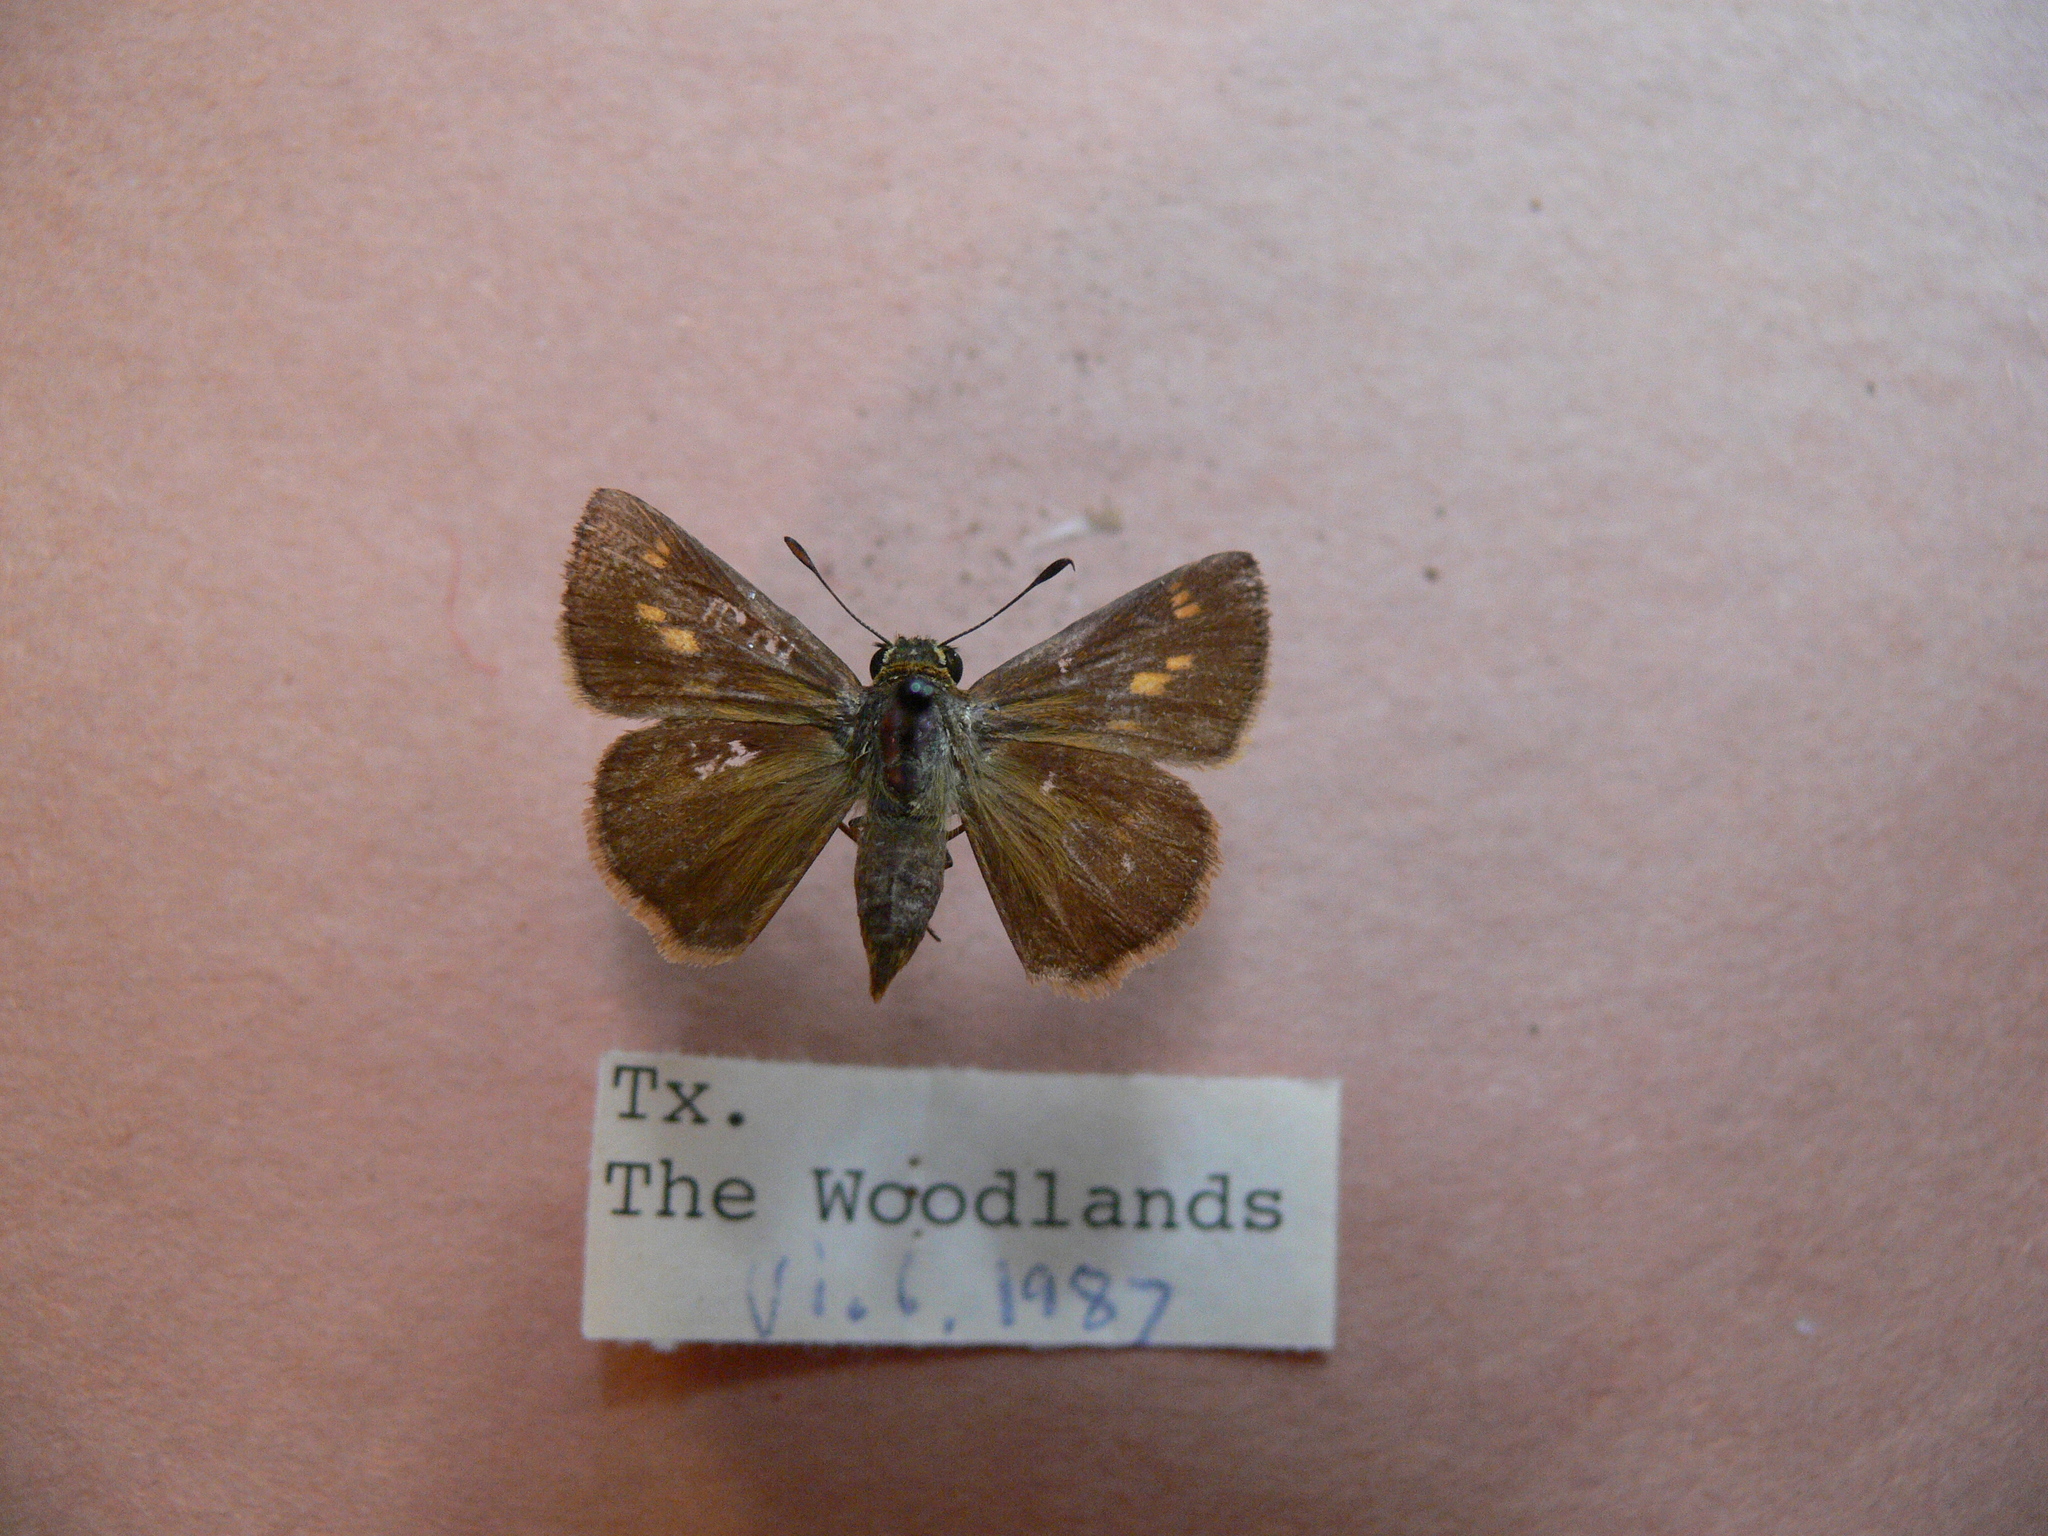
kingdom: Animalia
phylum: Arthropoda
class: Insecta
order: Lepidoptera
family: Hesperiidae
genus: Polites
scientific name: Polites otho
